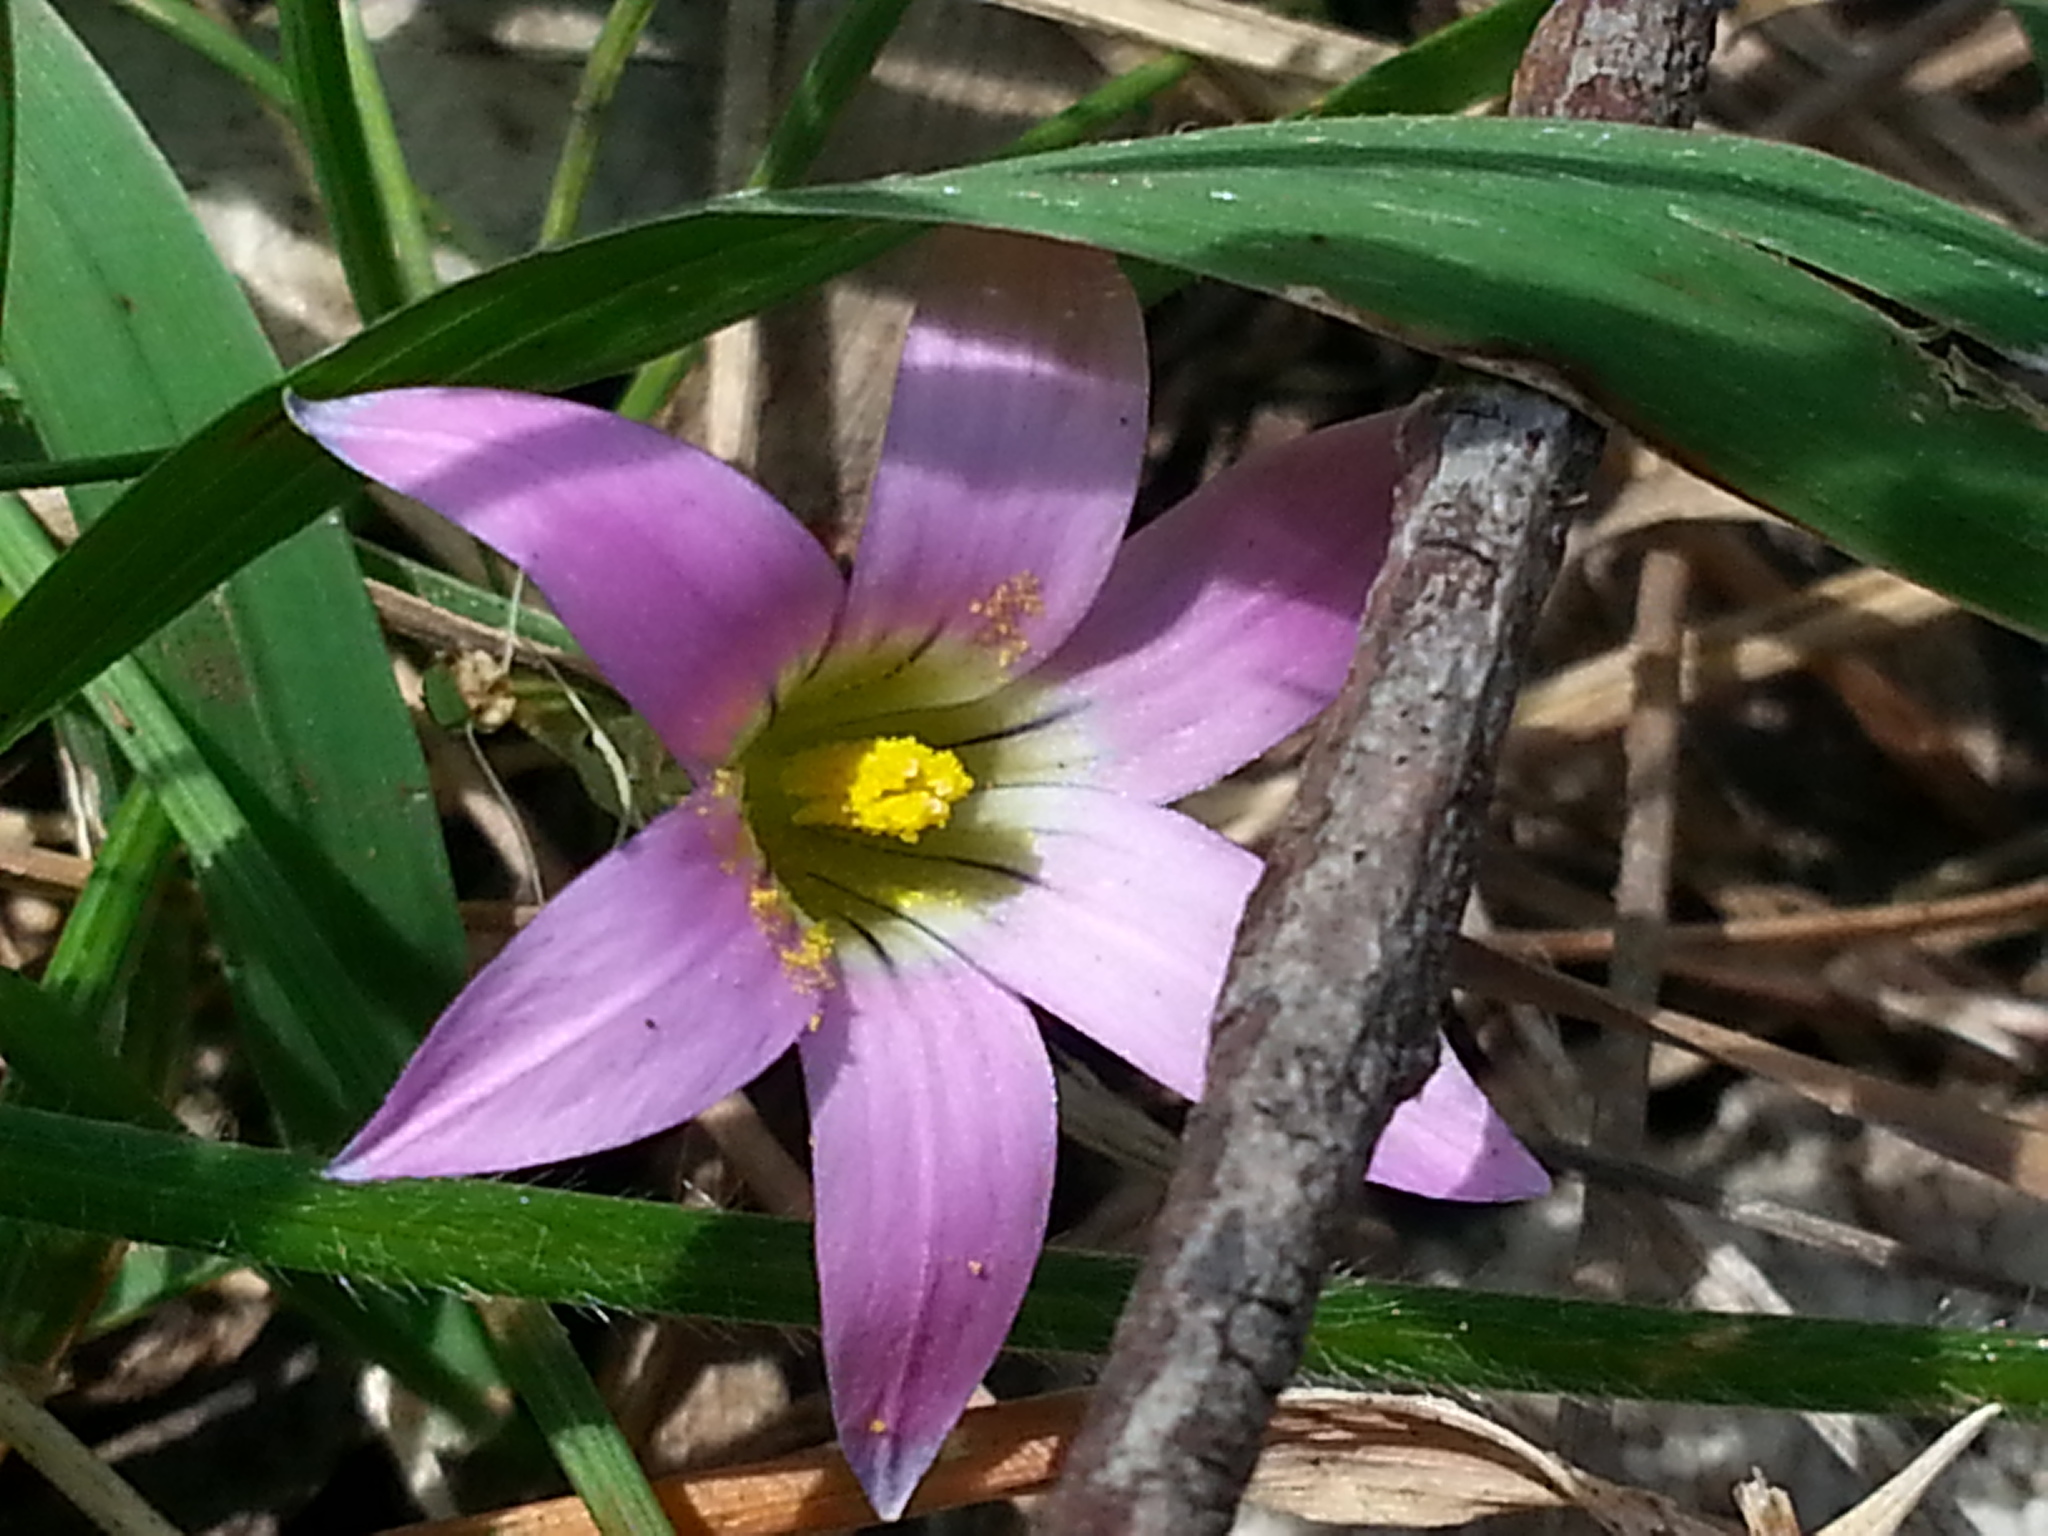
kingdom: Plantae
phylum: Tracheophyta
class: Liliopsida
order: Asparagales
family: Iridaceae
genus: Romulea
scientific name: Romulea rosea
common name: Oniongrass
